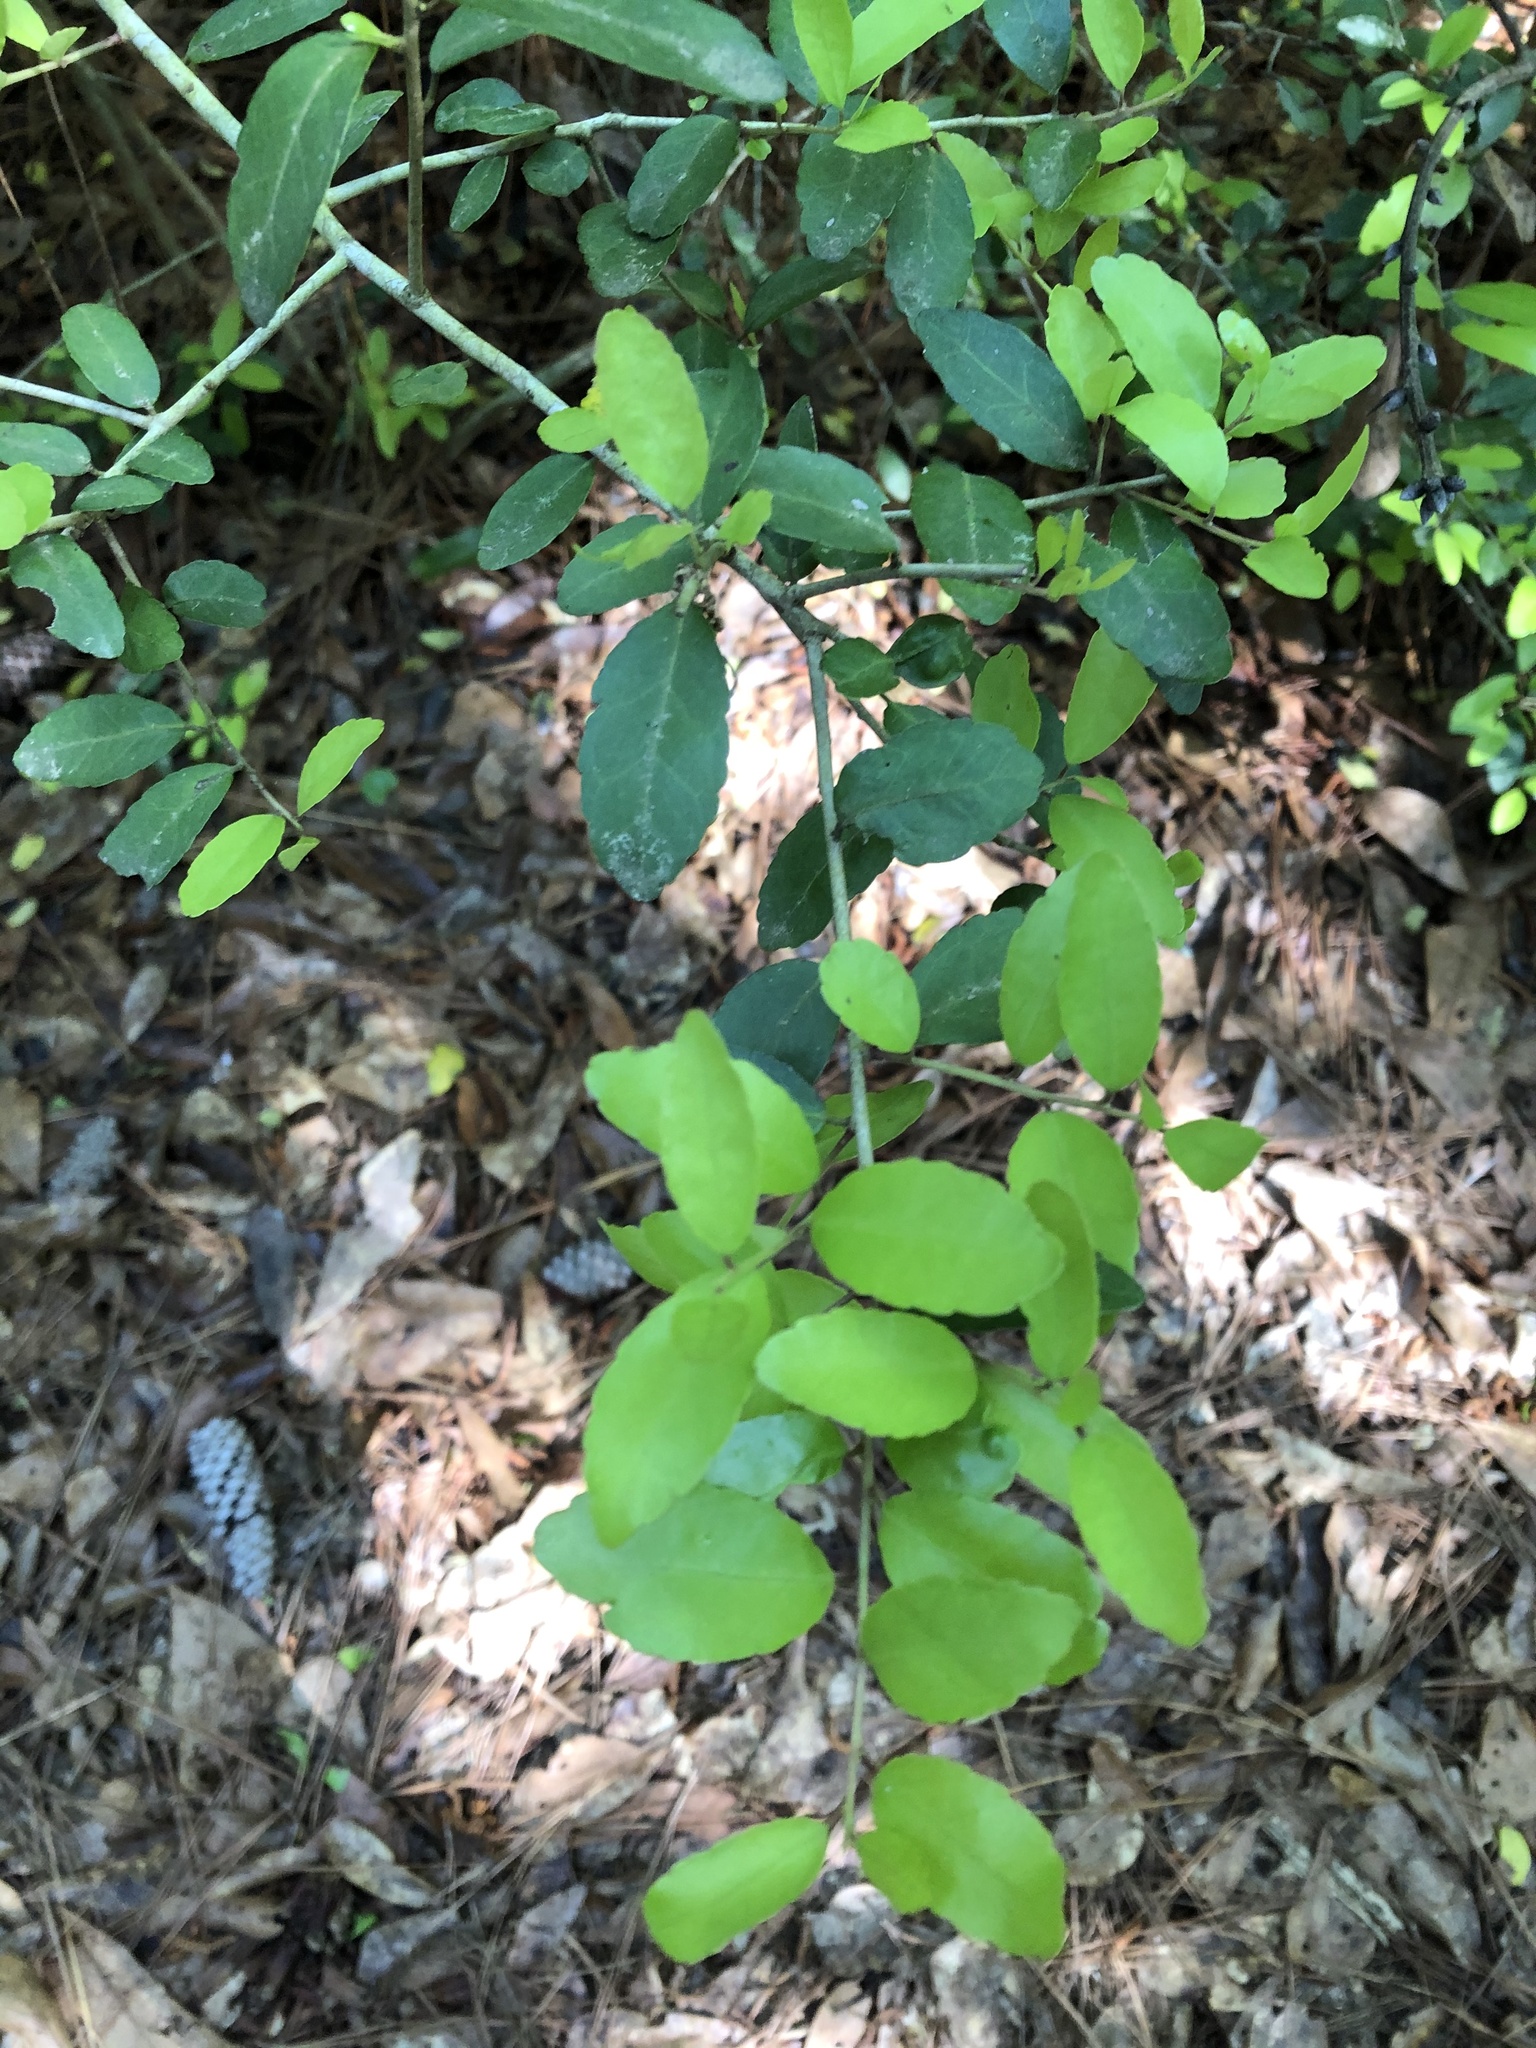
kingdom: Plantae
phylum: Tracheophyta
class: Magnoliopsida
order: Aquifoliales
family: Aquifoliaceae
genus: Ilex
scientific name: Ilex vomitoria
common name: Yaupon holly
